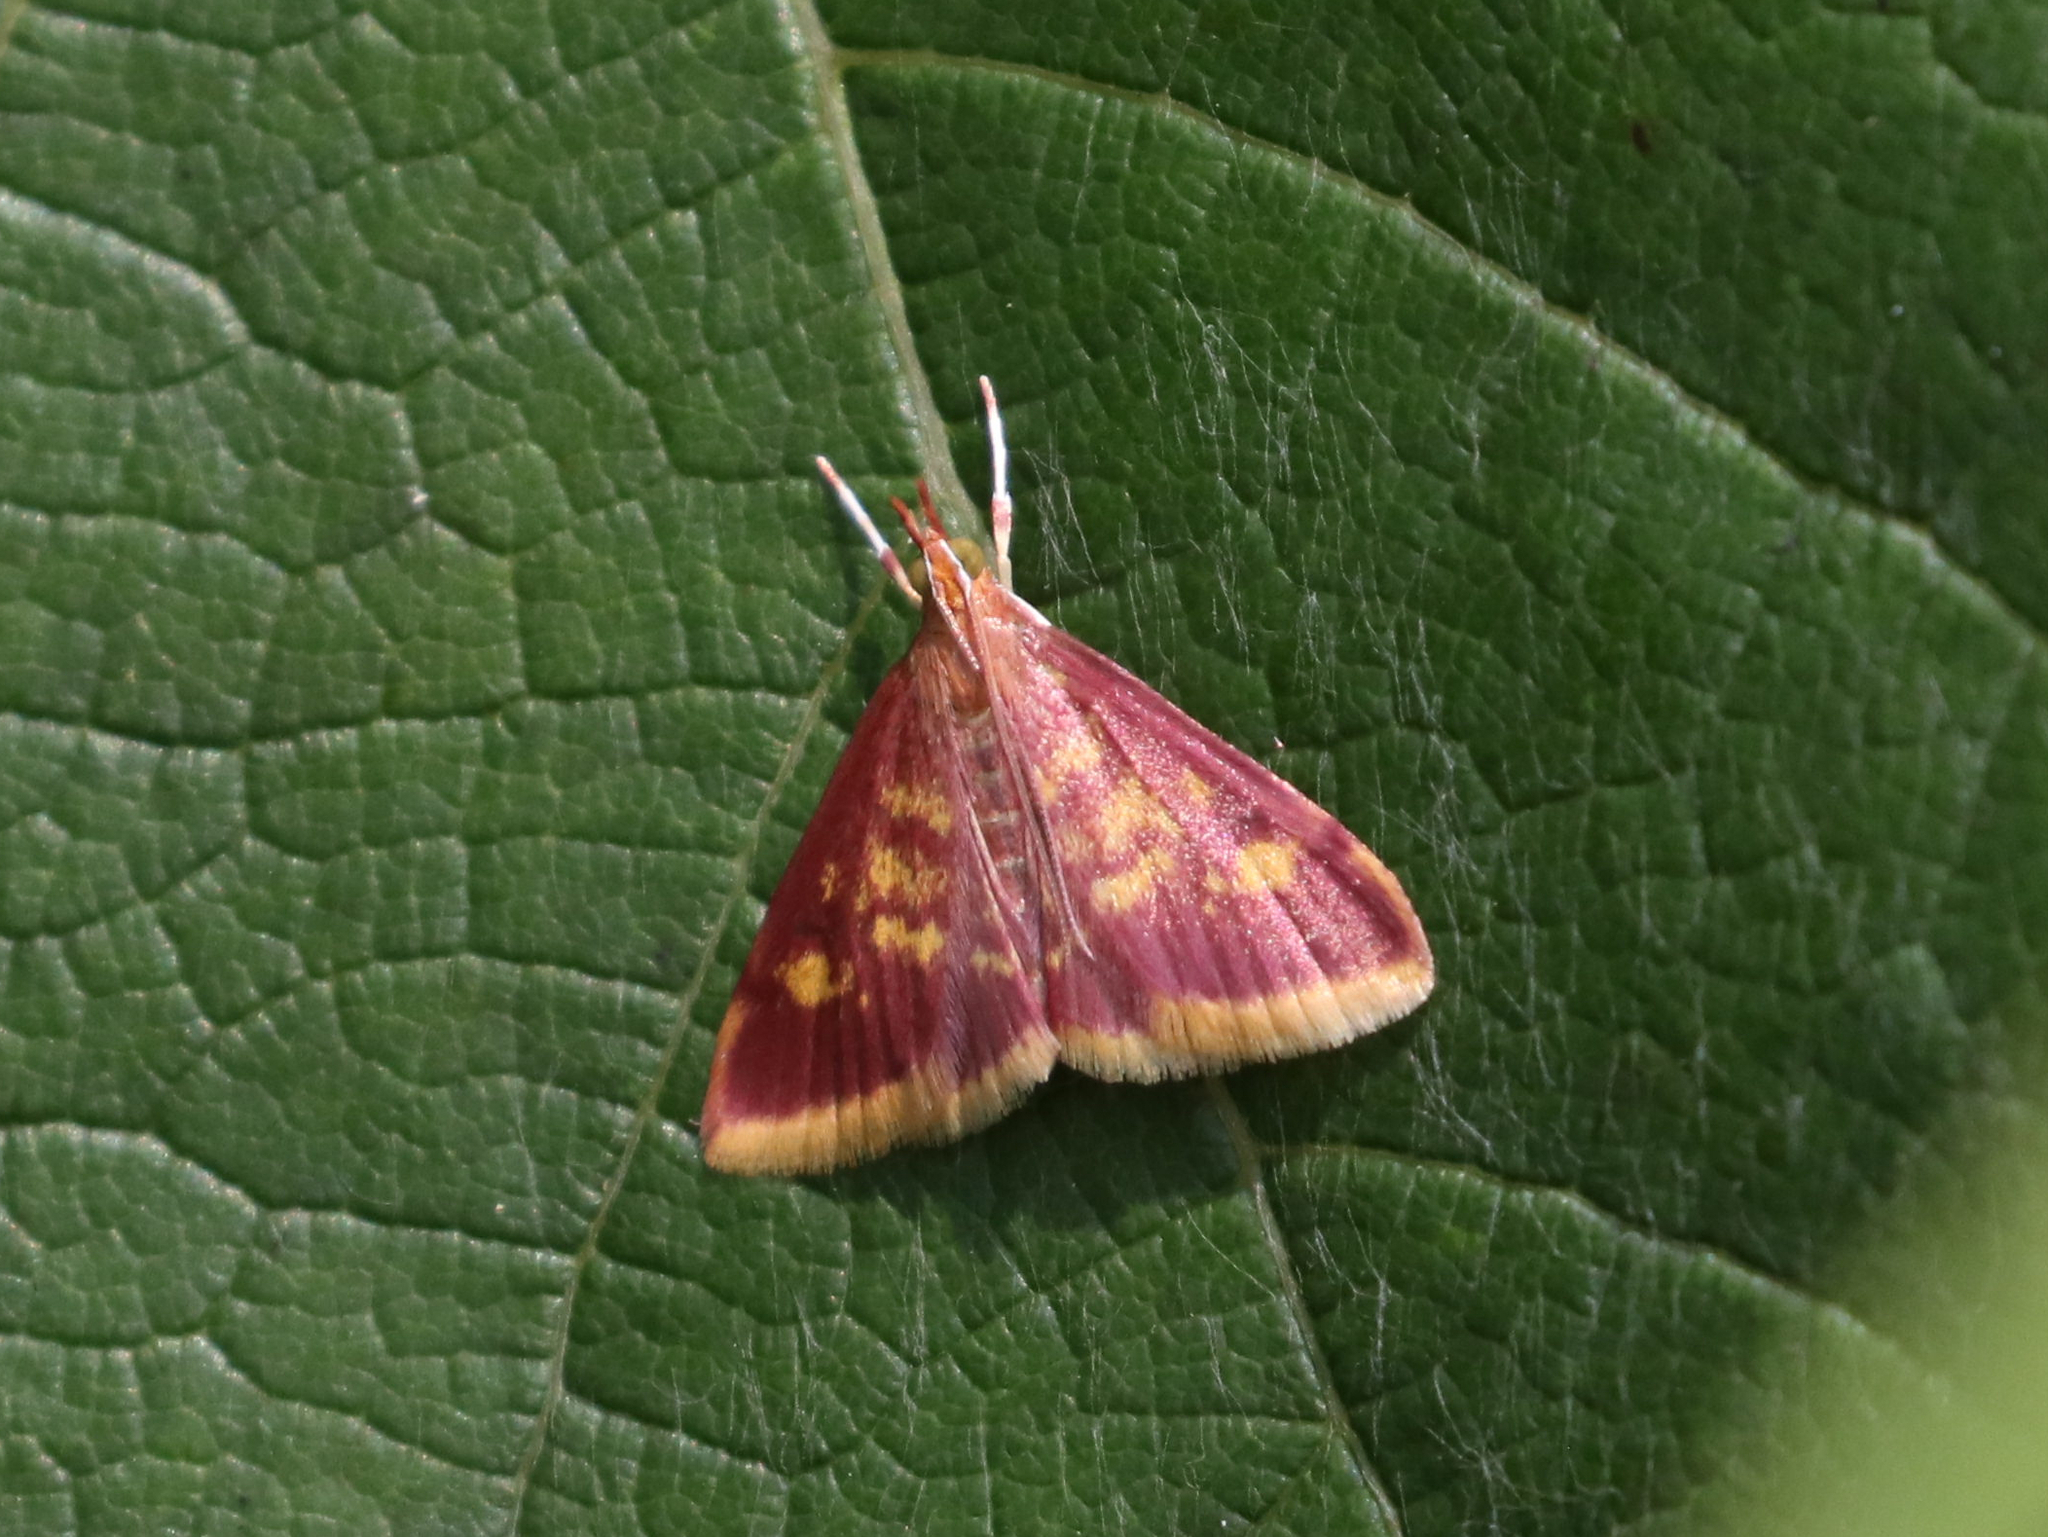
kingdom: Animalia
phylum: Arthropoda
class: Insecta
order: Lepidoptera
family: Crambidae
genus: Pyrausta
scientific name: Pyrausta acrionalis
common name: Mint-loving pyrausta moth
